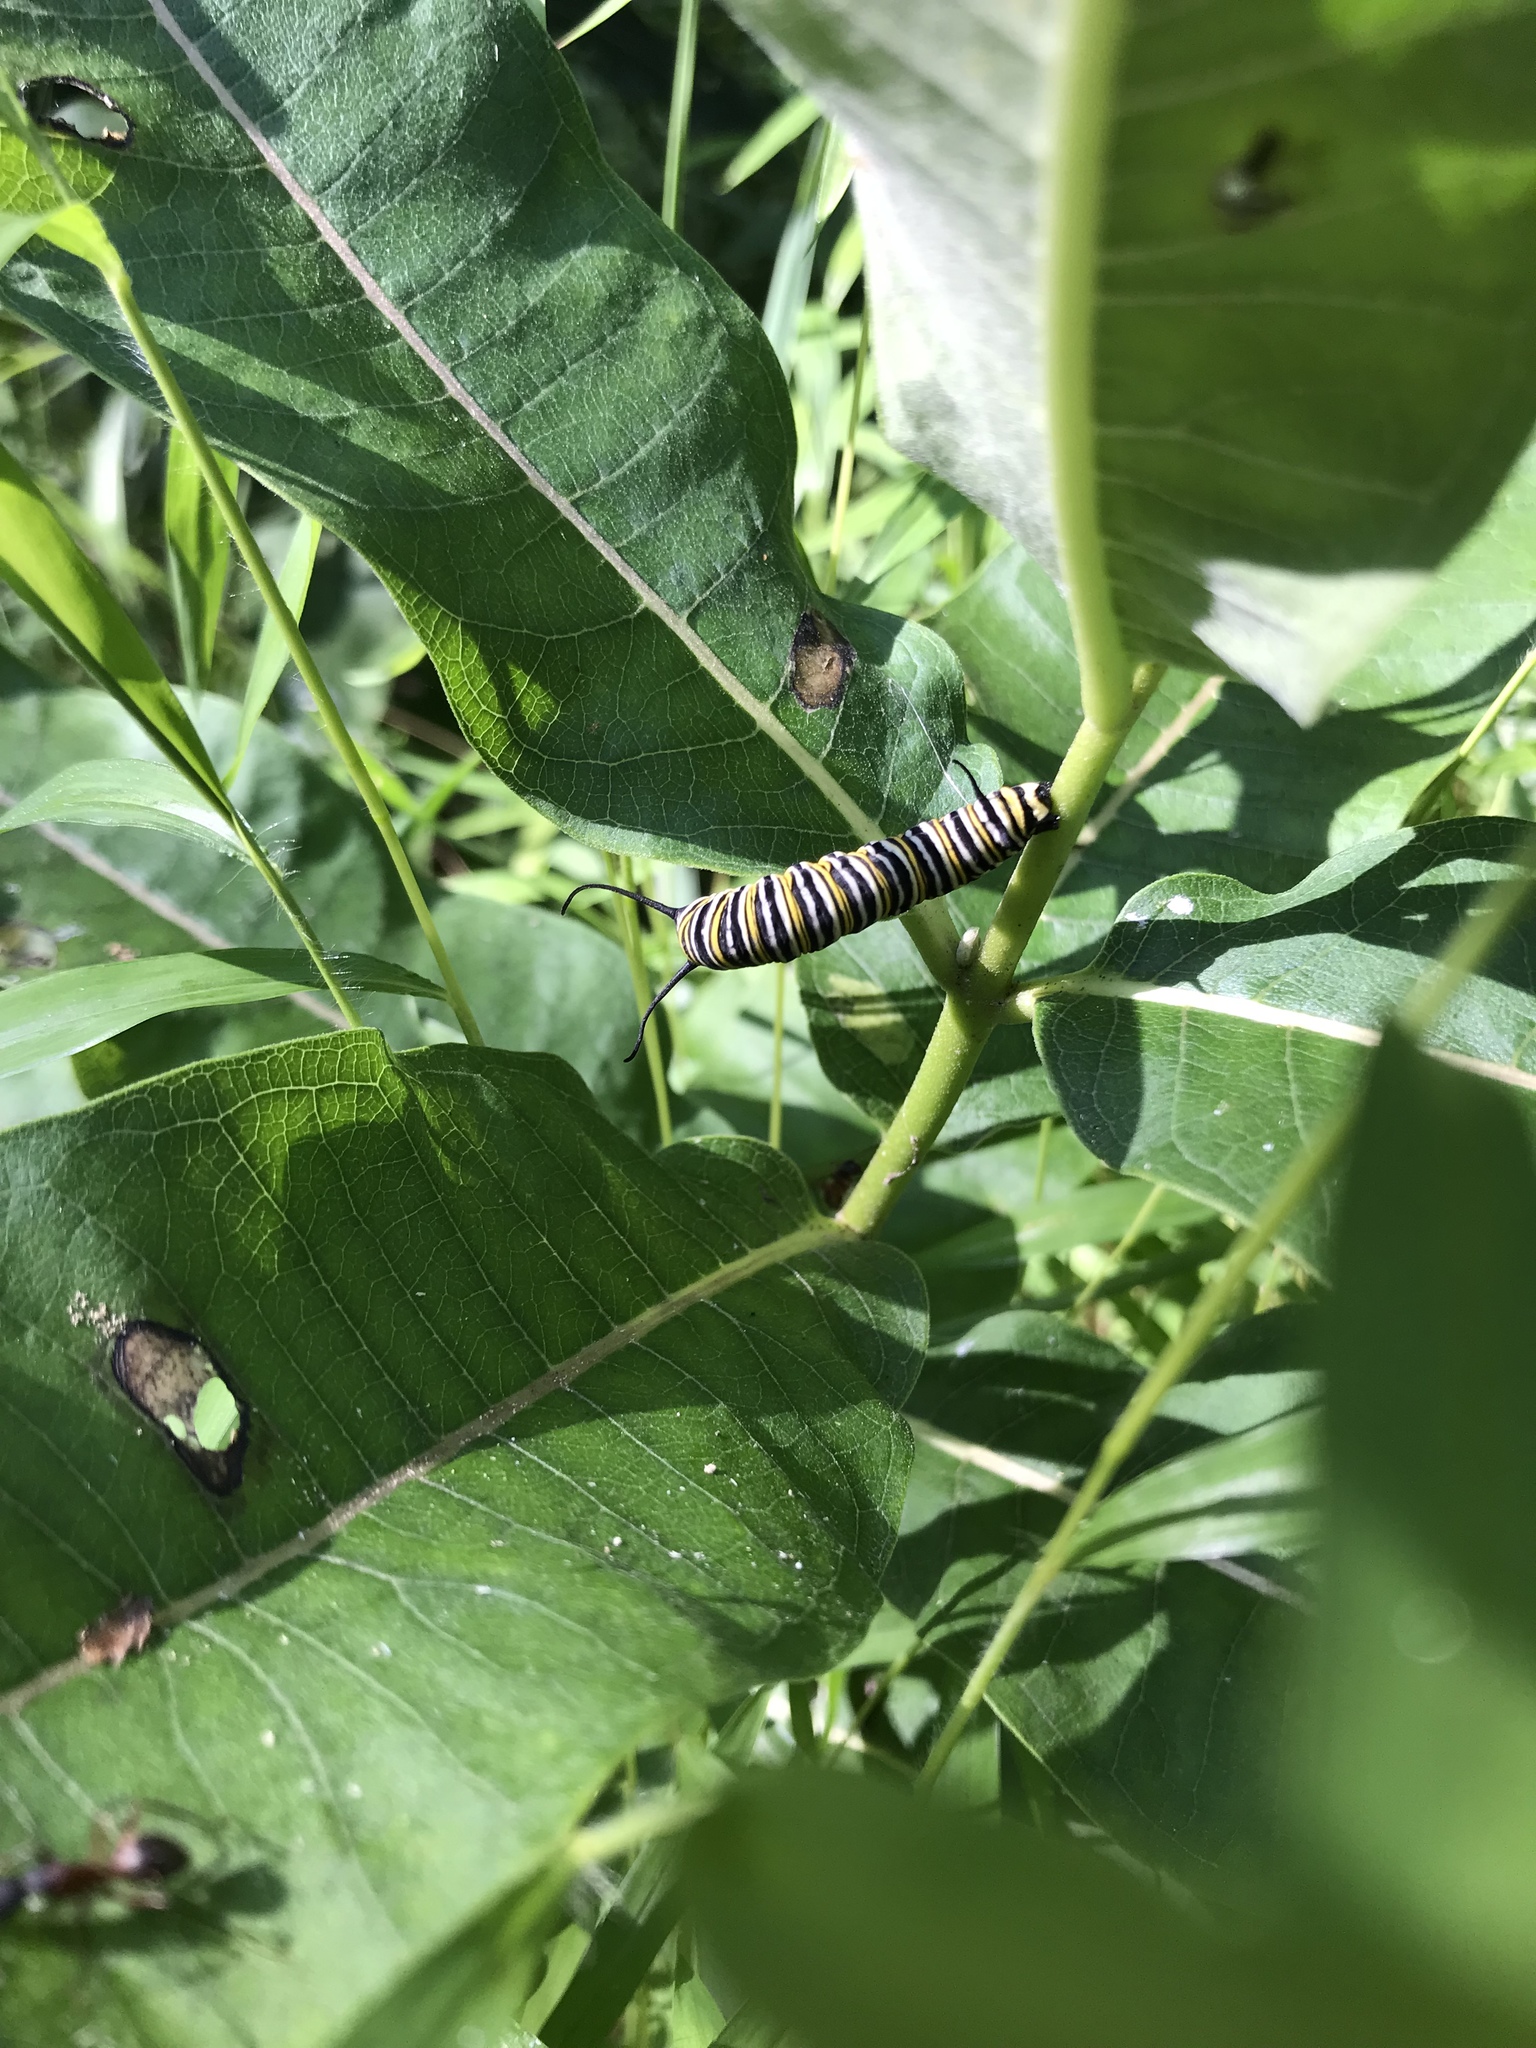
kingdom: Animalia
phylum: Arthropoda
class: Insecta
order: Lepidoptera
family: Nymphalidae
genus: Danaus
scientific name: Danaus plexippus
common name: Monarch
